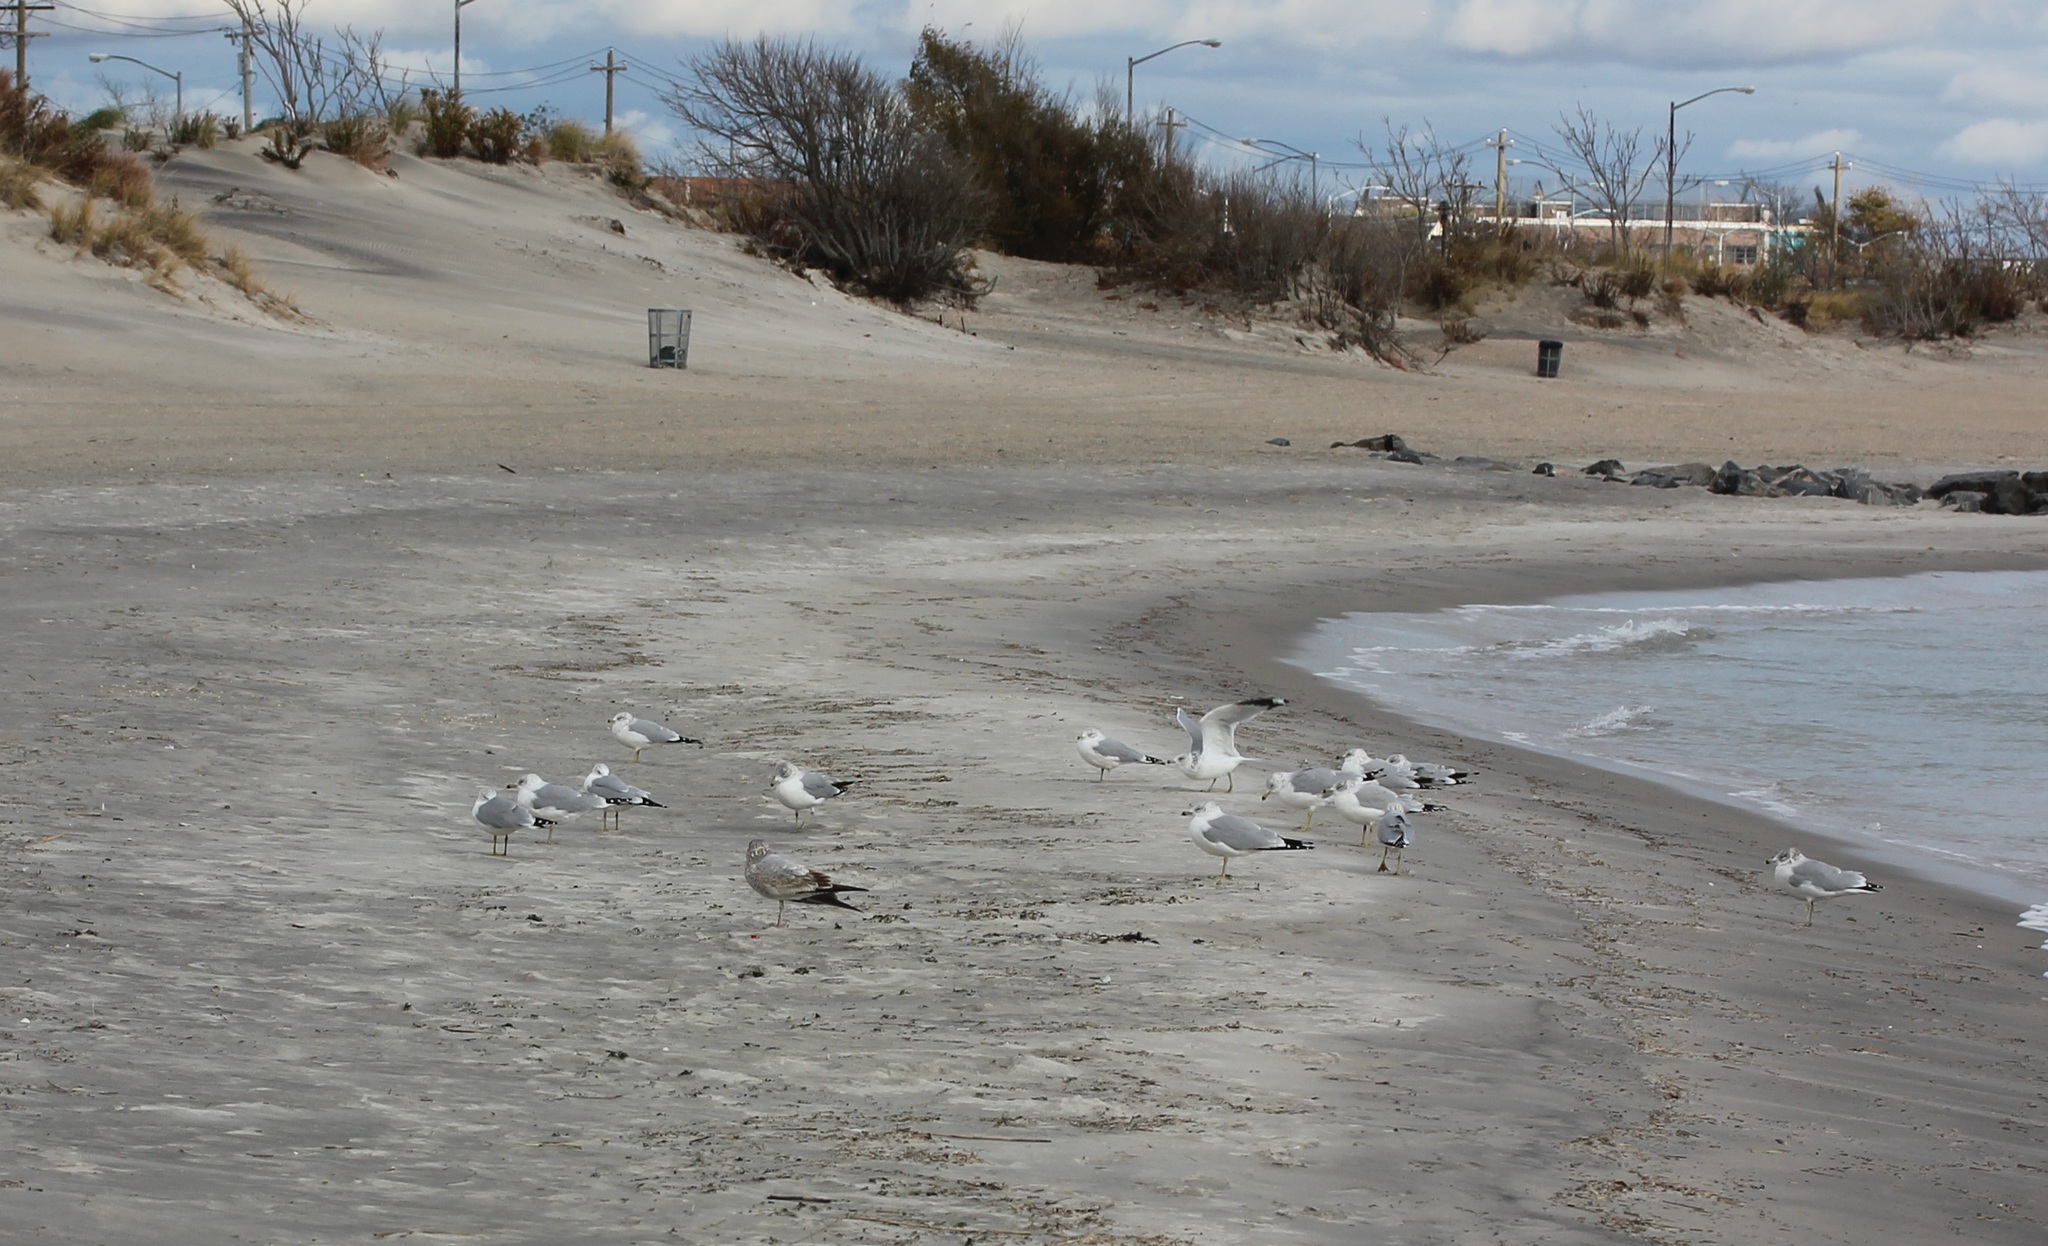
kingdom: Animalia
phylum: Chordata
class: Aves
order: Charadriiformes
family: Laridae
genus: Larus
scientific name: Larus delawarensis
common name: Ring-billed gull
